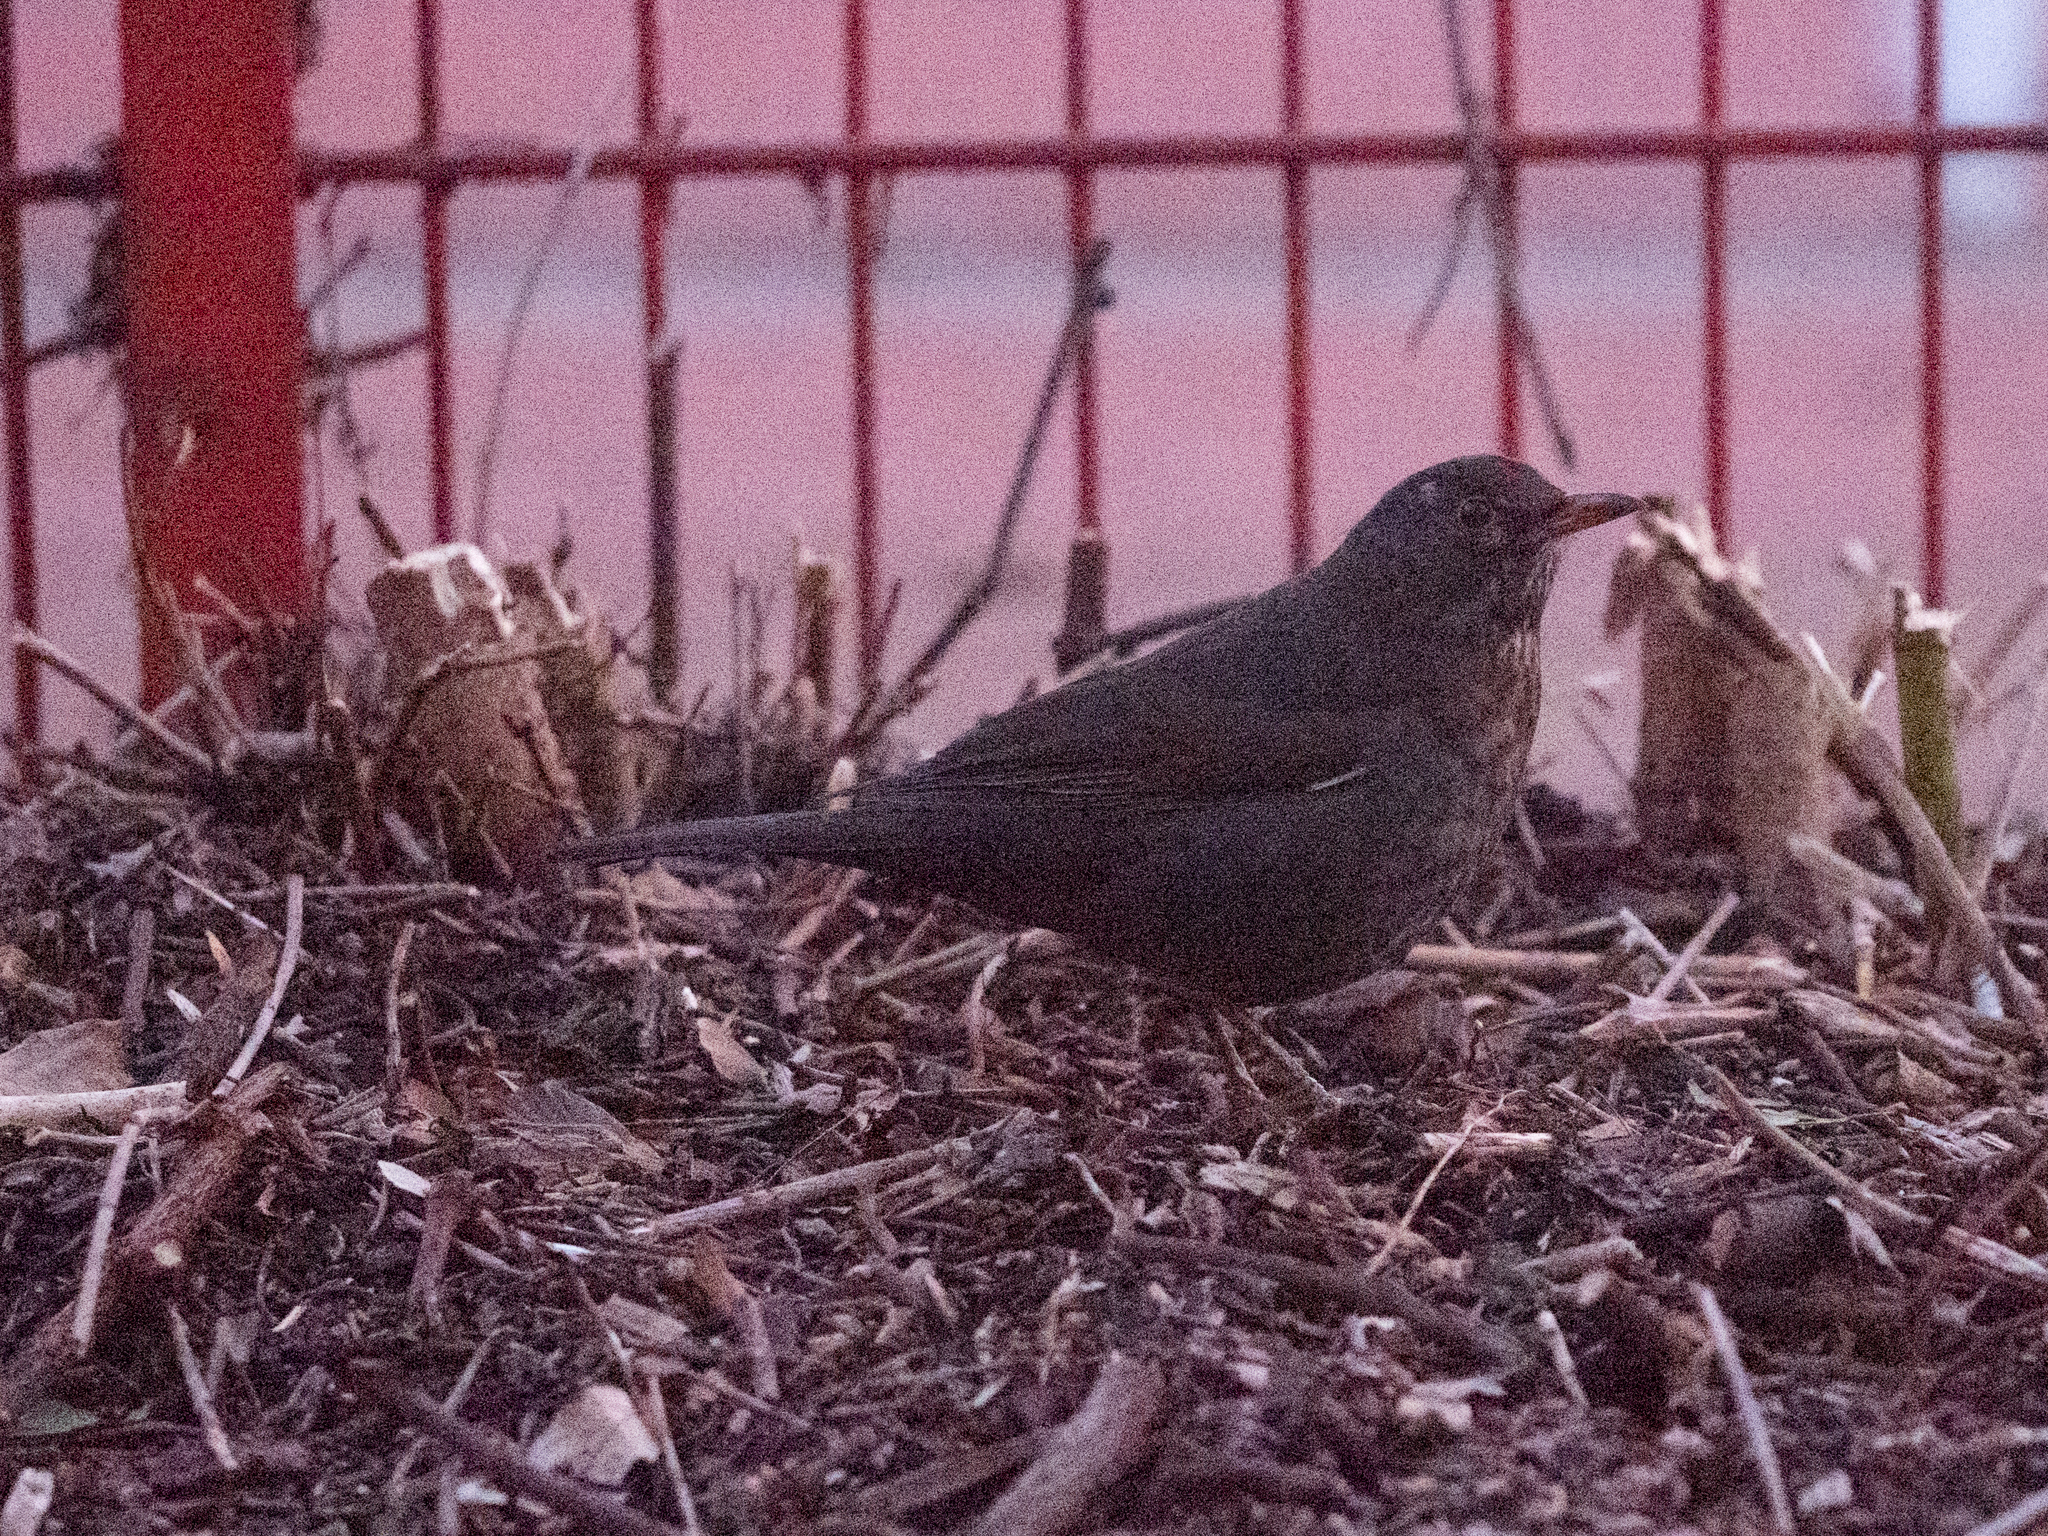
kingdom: Animalia
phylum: Chordata
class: Aves
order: Passeriformes
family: Turdidae
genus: Turdus
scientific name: Turdus merula
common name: Common blackbird
